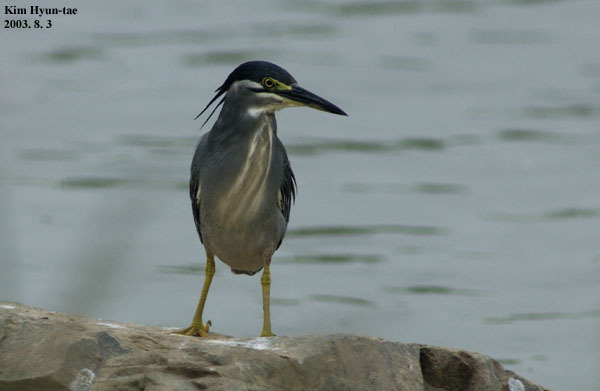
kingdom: Animalia
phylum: Chordata
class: Aves
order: Pelecaniformes
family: Ardeidae
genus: Butorides
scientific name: Butorides striata
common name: Striated heron
